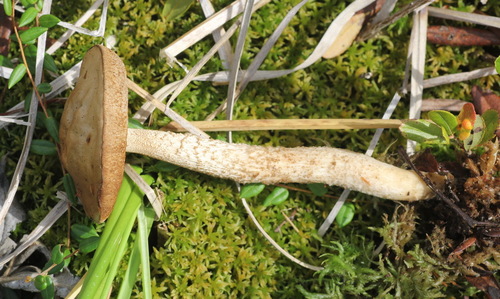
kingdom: Fungi
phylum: Basidiomycota
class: Agaricomycetes
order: Boletales
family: Boletaceae
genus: Leccinum
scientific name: Leccinum holopus
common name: Ghost bolete
